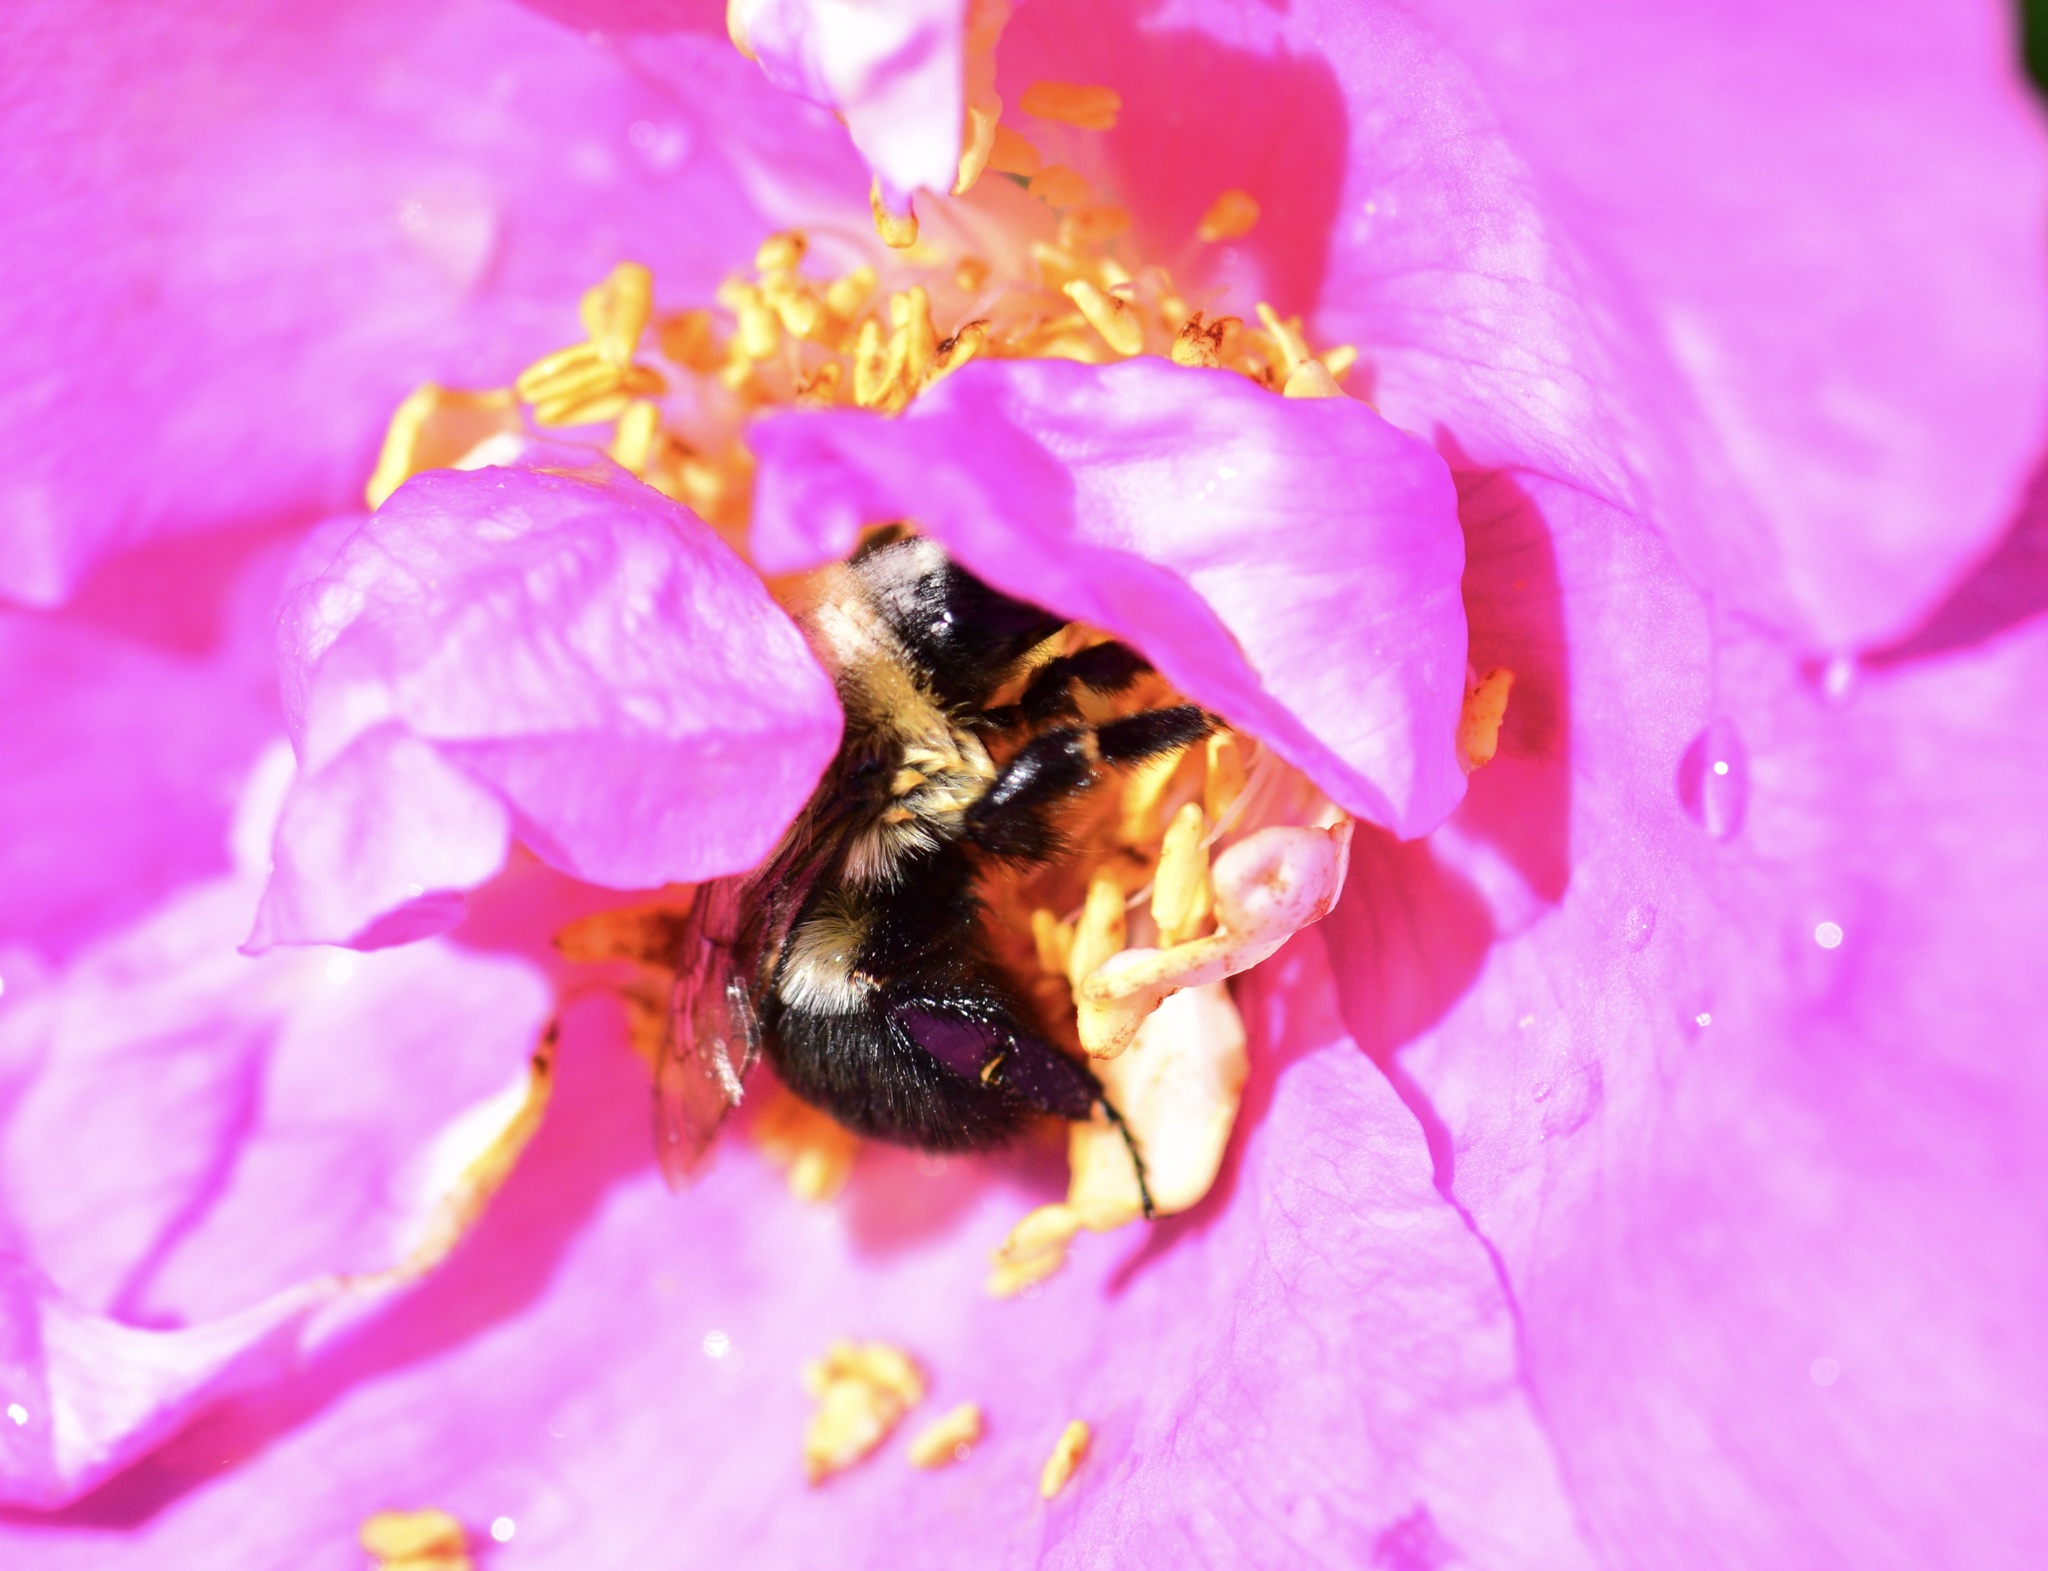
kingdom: Animalia
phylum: Arthropoda
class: Insecta
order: Hymenoptera
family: Apidae
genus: Bombus
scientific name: Bombus impatiens
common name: Common eastern bumble bee
